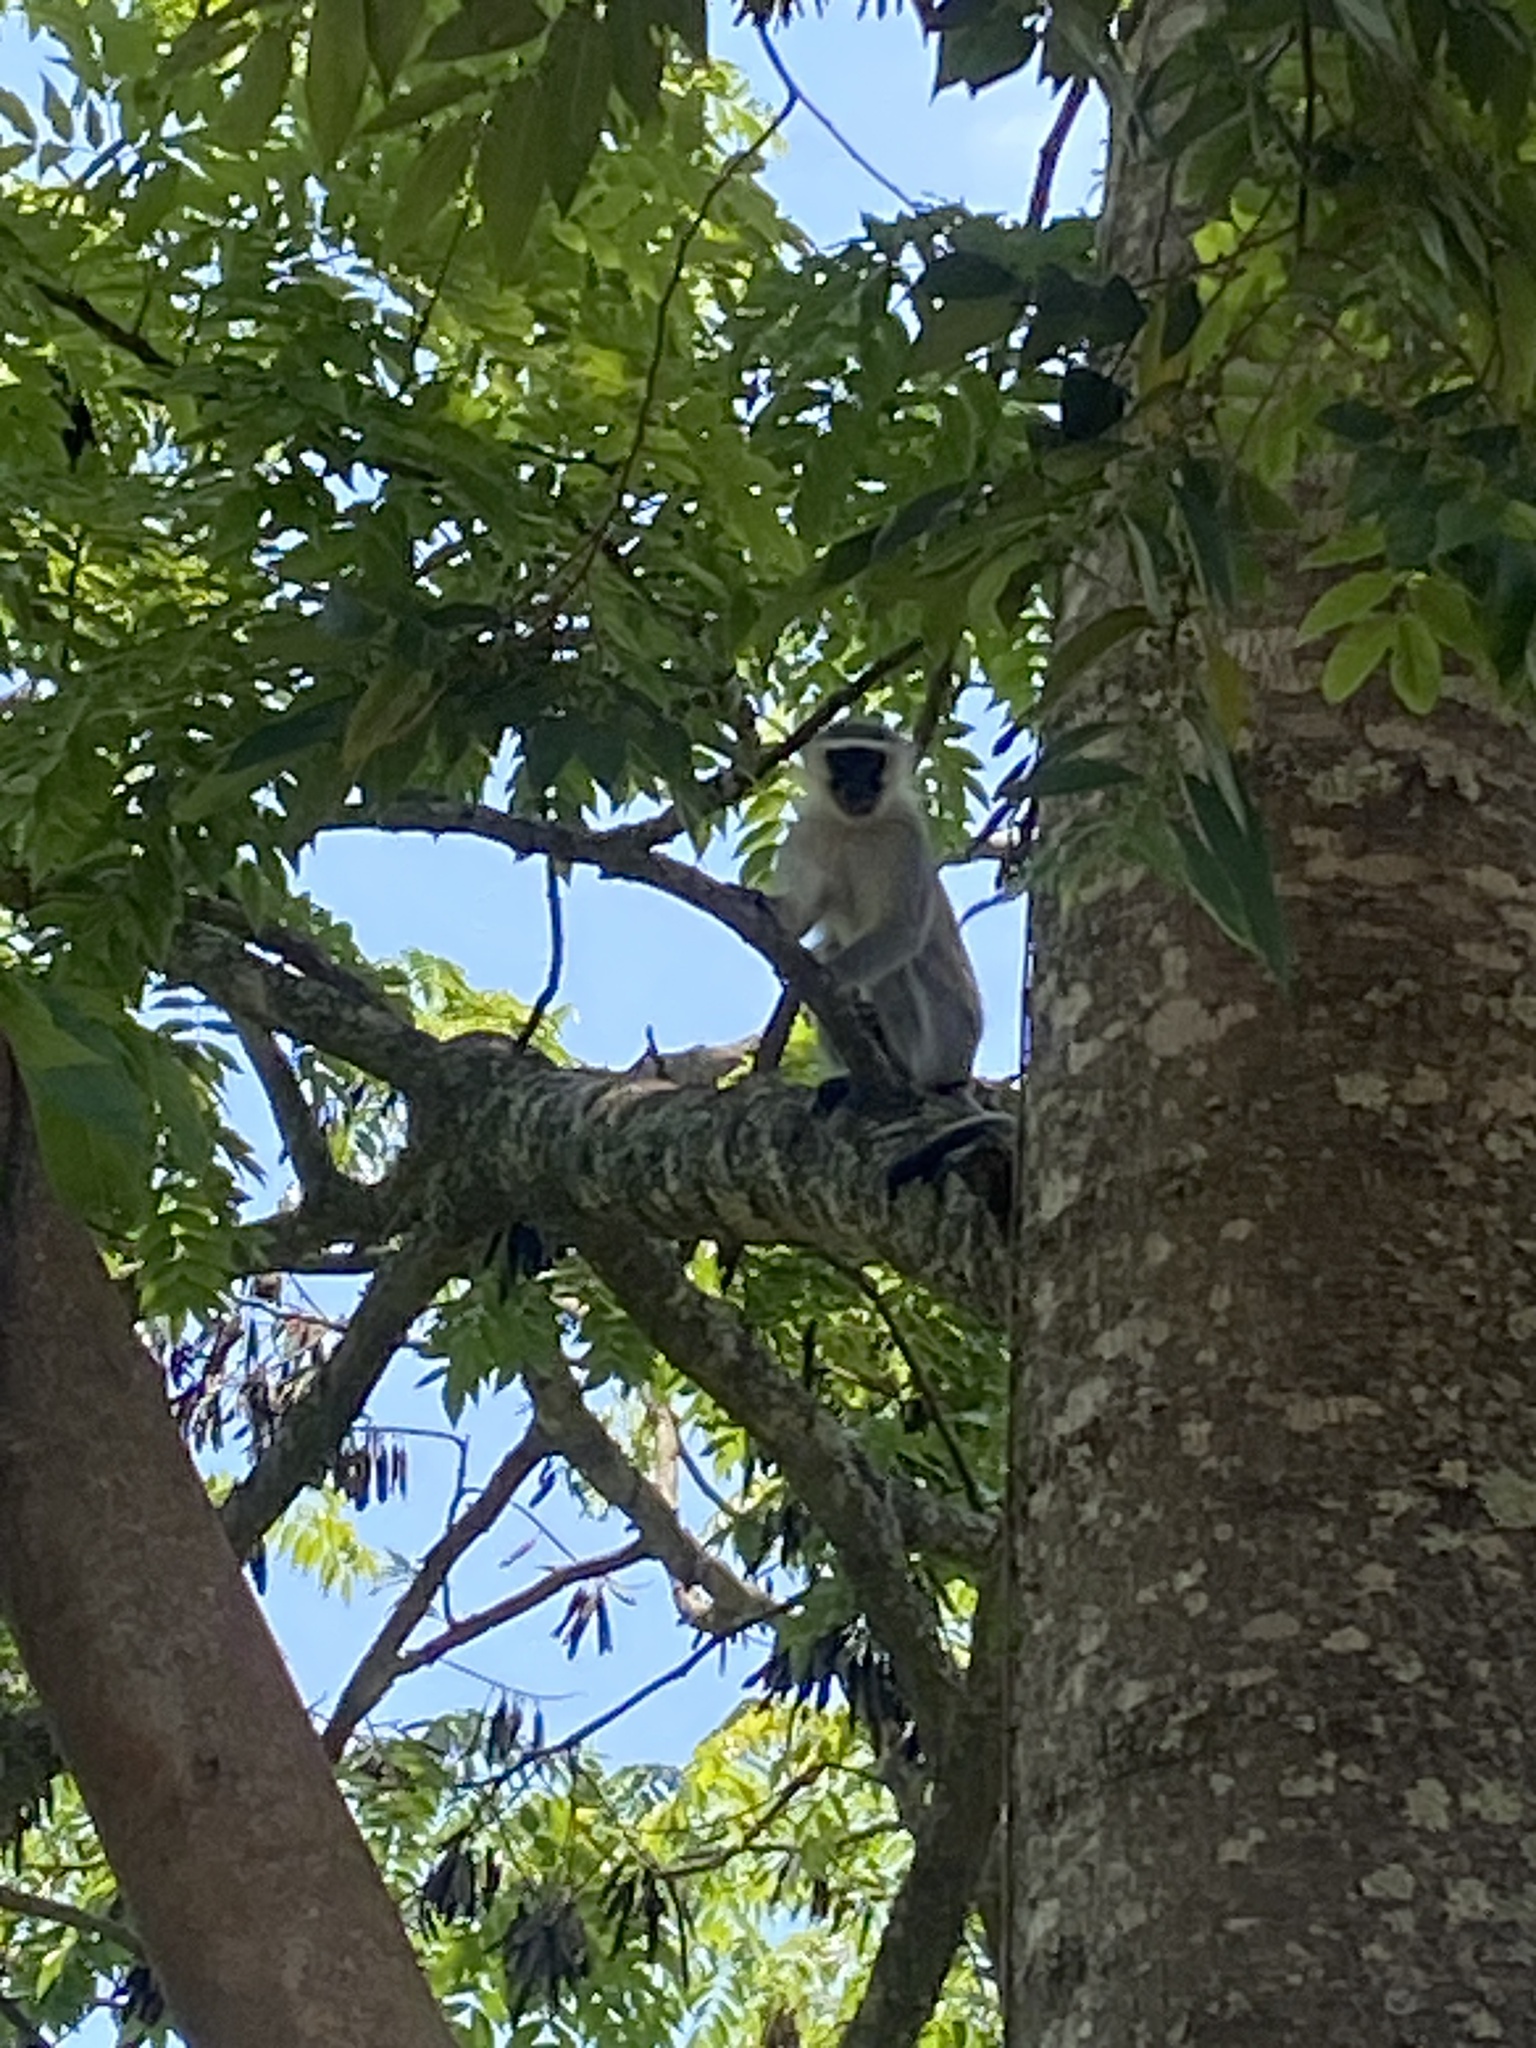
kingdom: Animalia
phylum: Chordata
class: Mammalia
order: Primates
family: Cercopithecidae
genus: Chlorocebus
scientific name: Chlorocebus pygerythrus
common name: Vervet monkey
